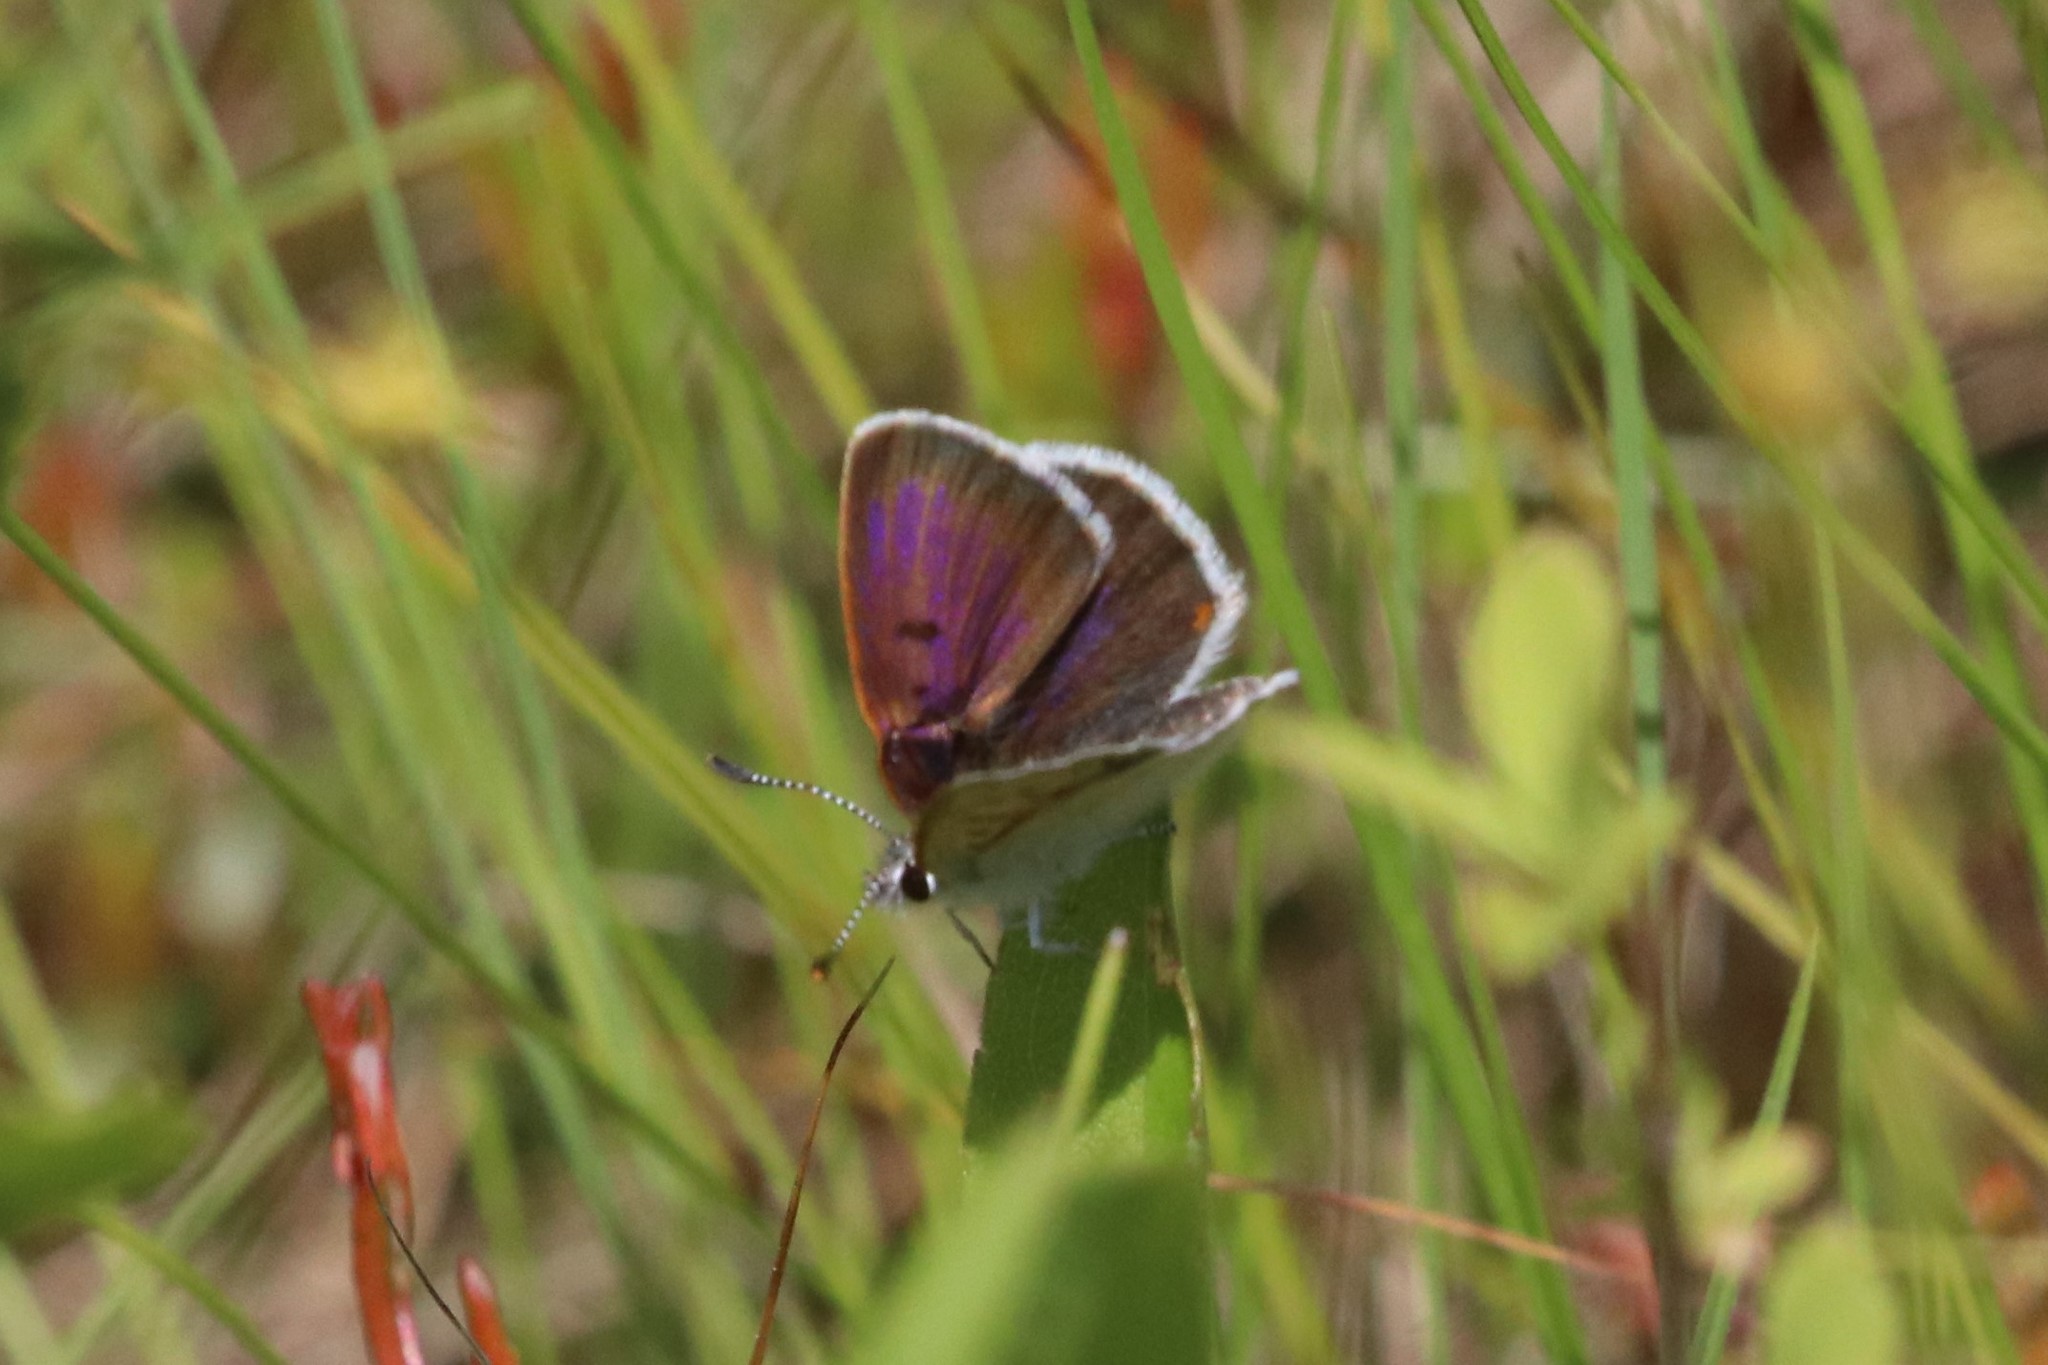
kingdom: Animalia
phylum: Arthropoda
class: Insecta
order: Lepidoptera
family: Lycaenidae
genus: Tharsalea
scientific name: Tharsalea epixanthe
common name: Bog copper
